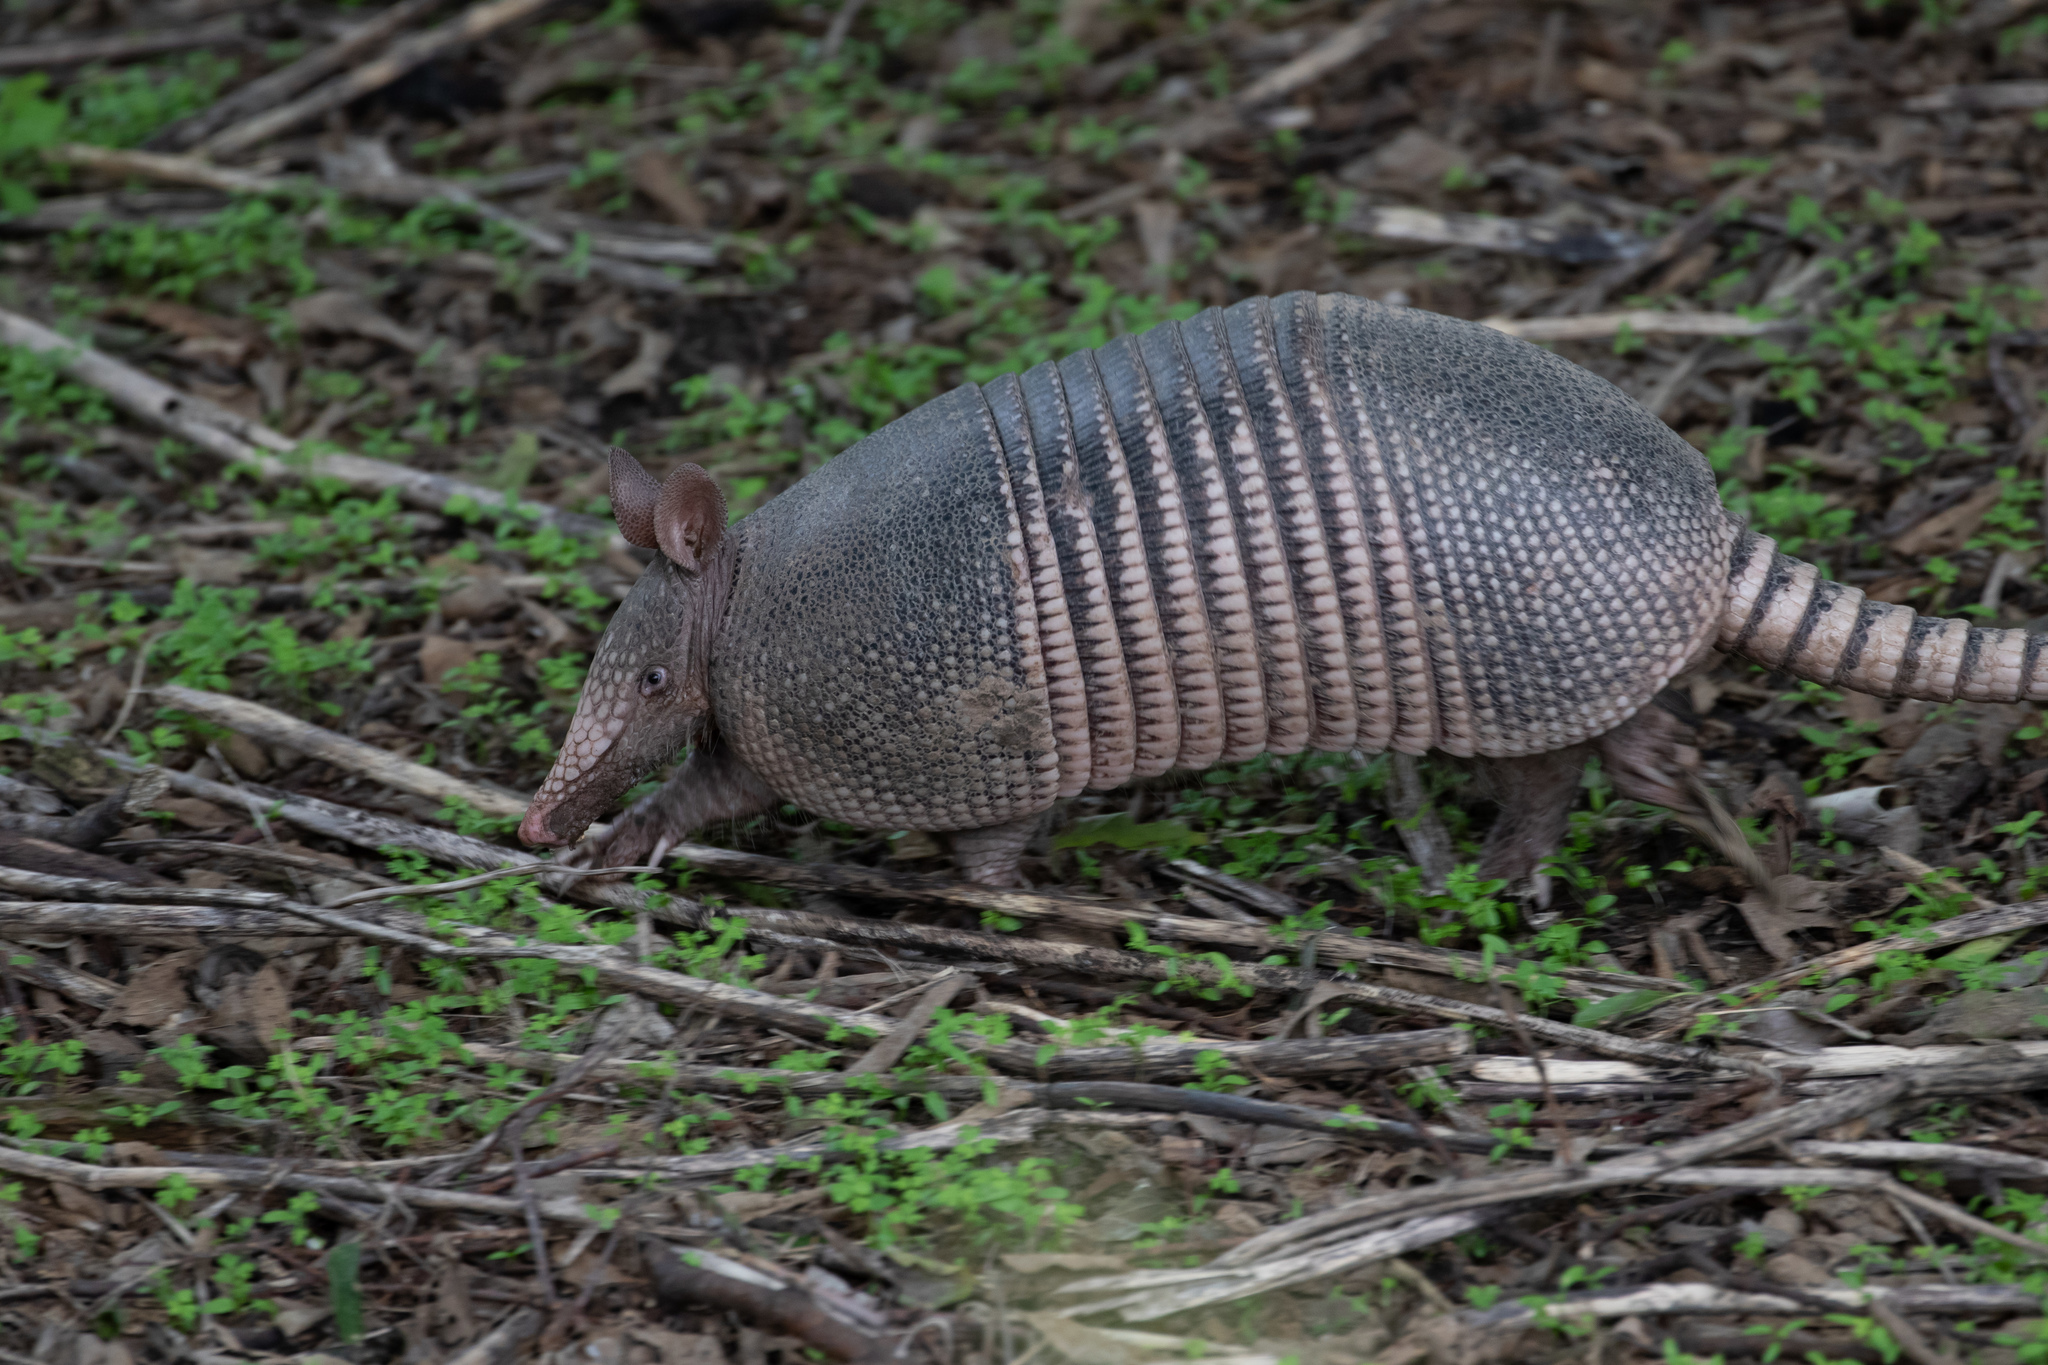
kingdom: Animalia
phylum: Chordata
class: Mammalia
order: Cingulata
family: Dasypodidae
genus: Dasypus
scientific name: Dasypus novemcinctus
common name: Nine-banded armadillo
